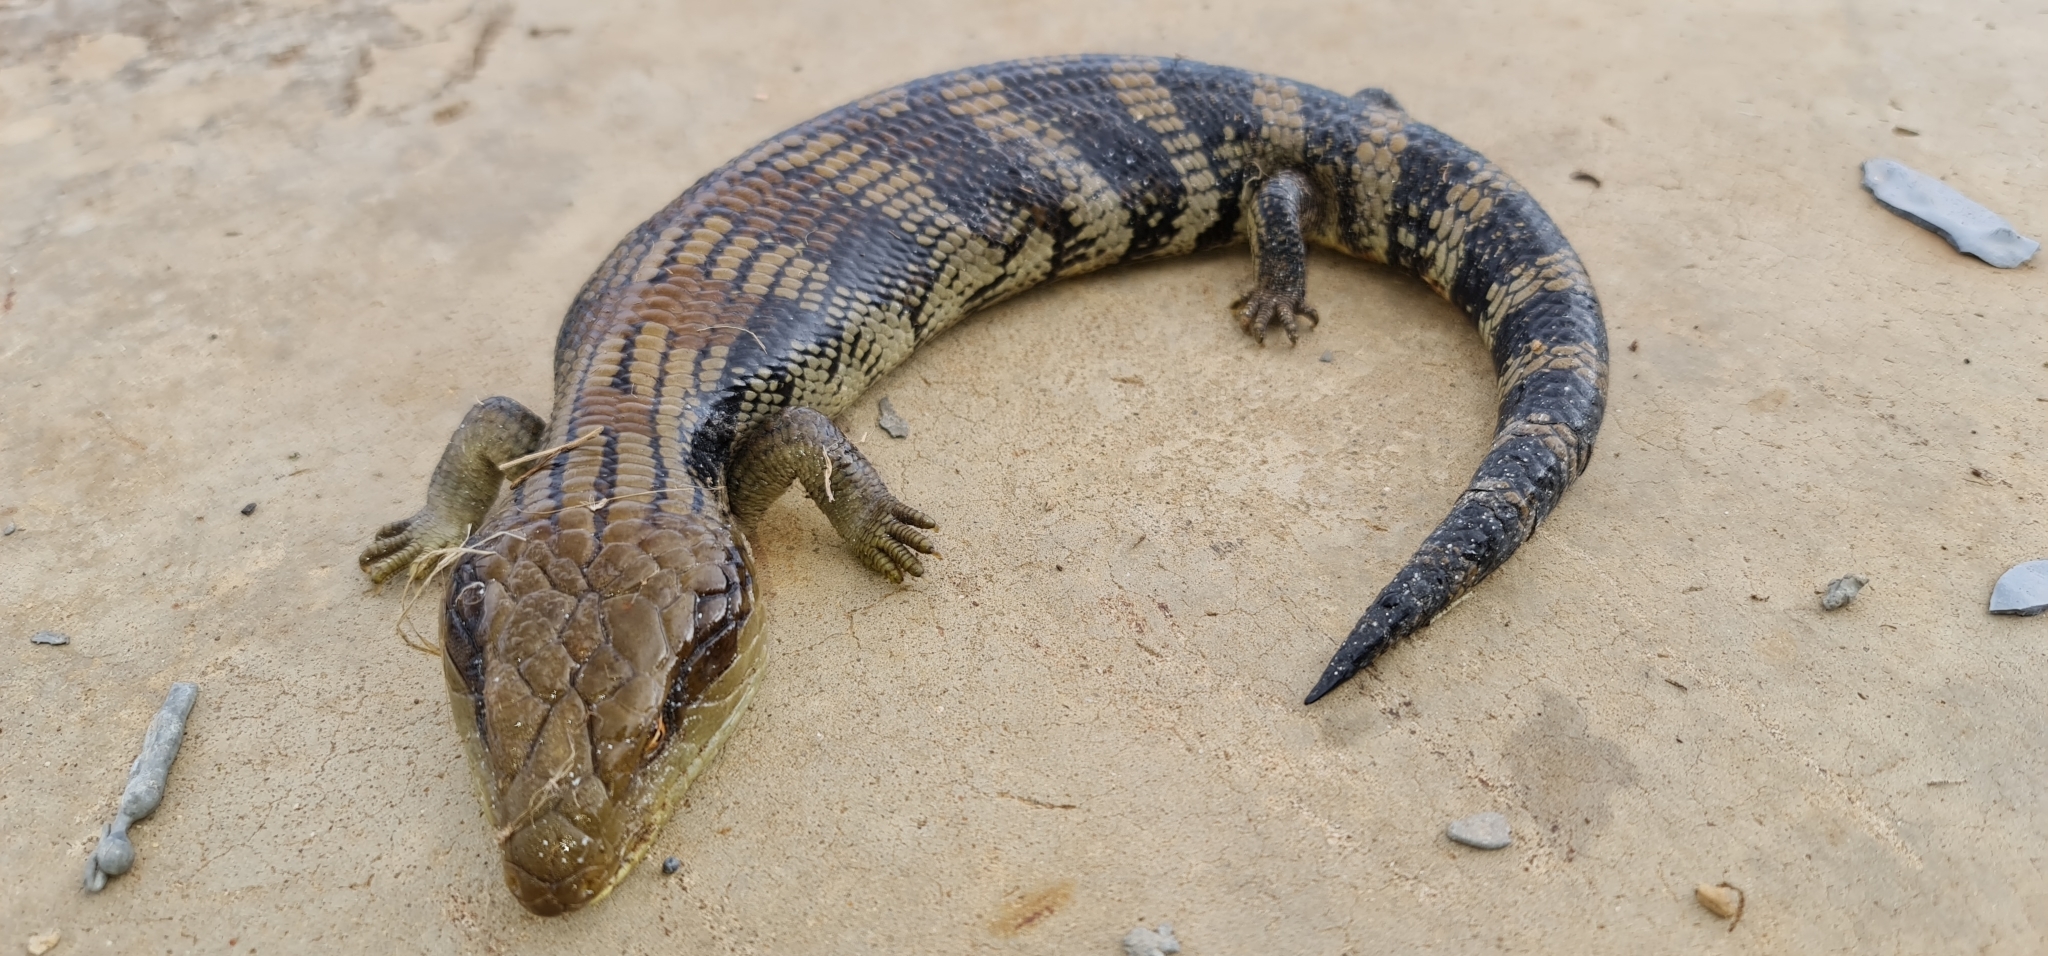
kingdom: Animalia
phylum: Chordata
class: Squamata
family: Scincidae
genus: Tiliqua
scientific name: Tiliqua scincoides
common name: Common bluetongue
